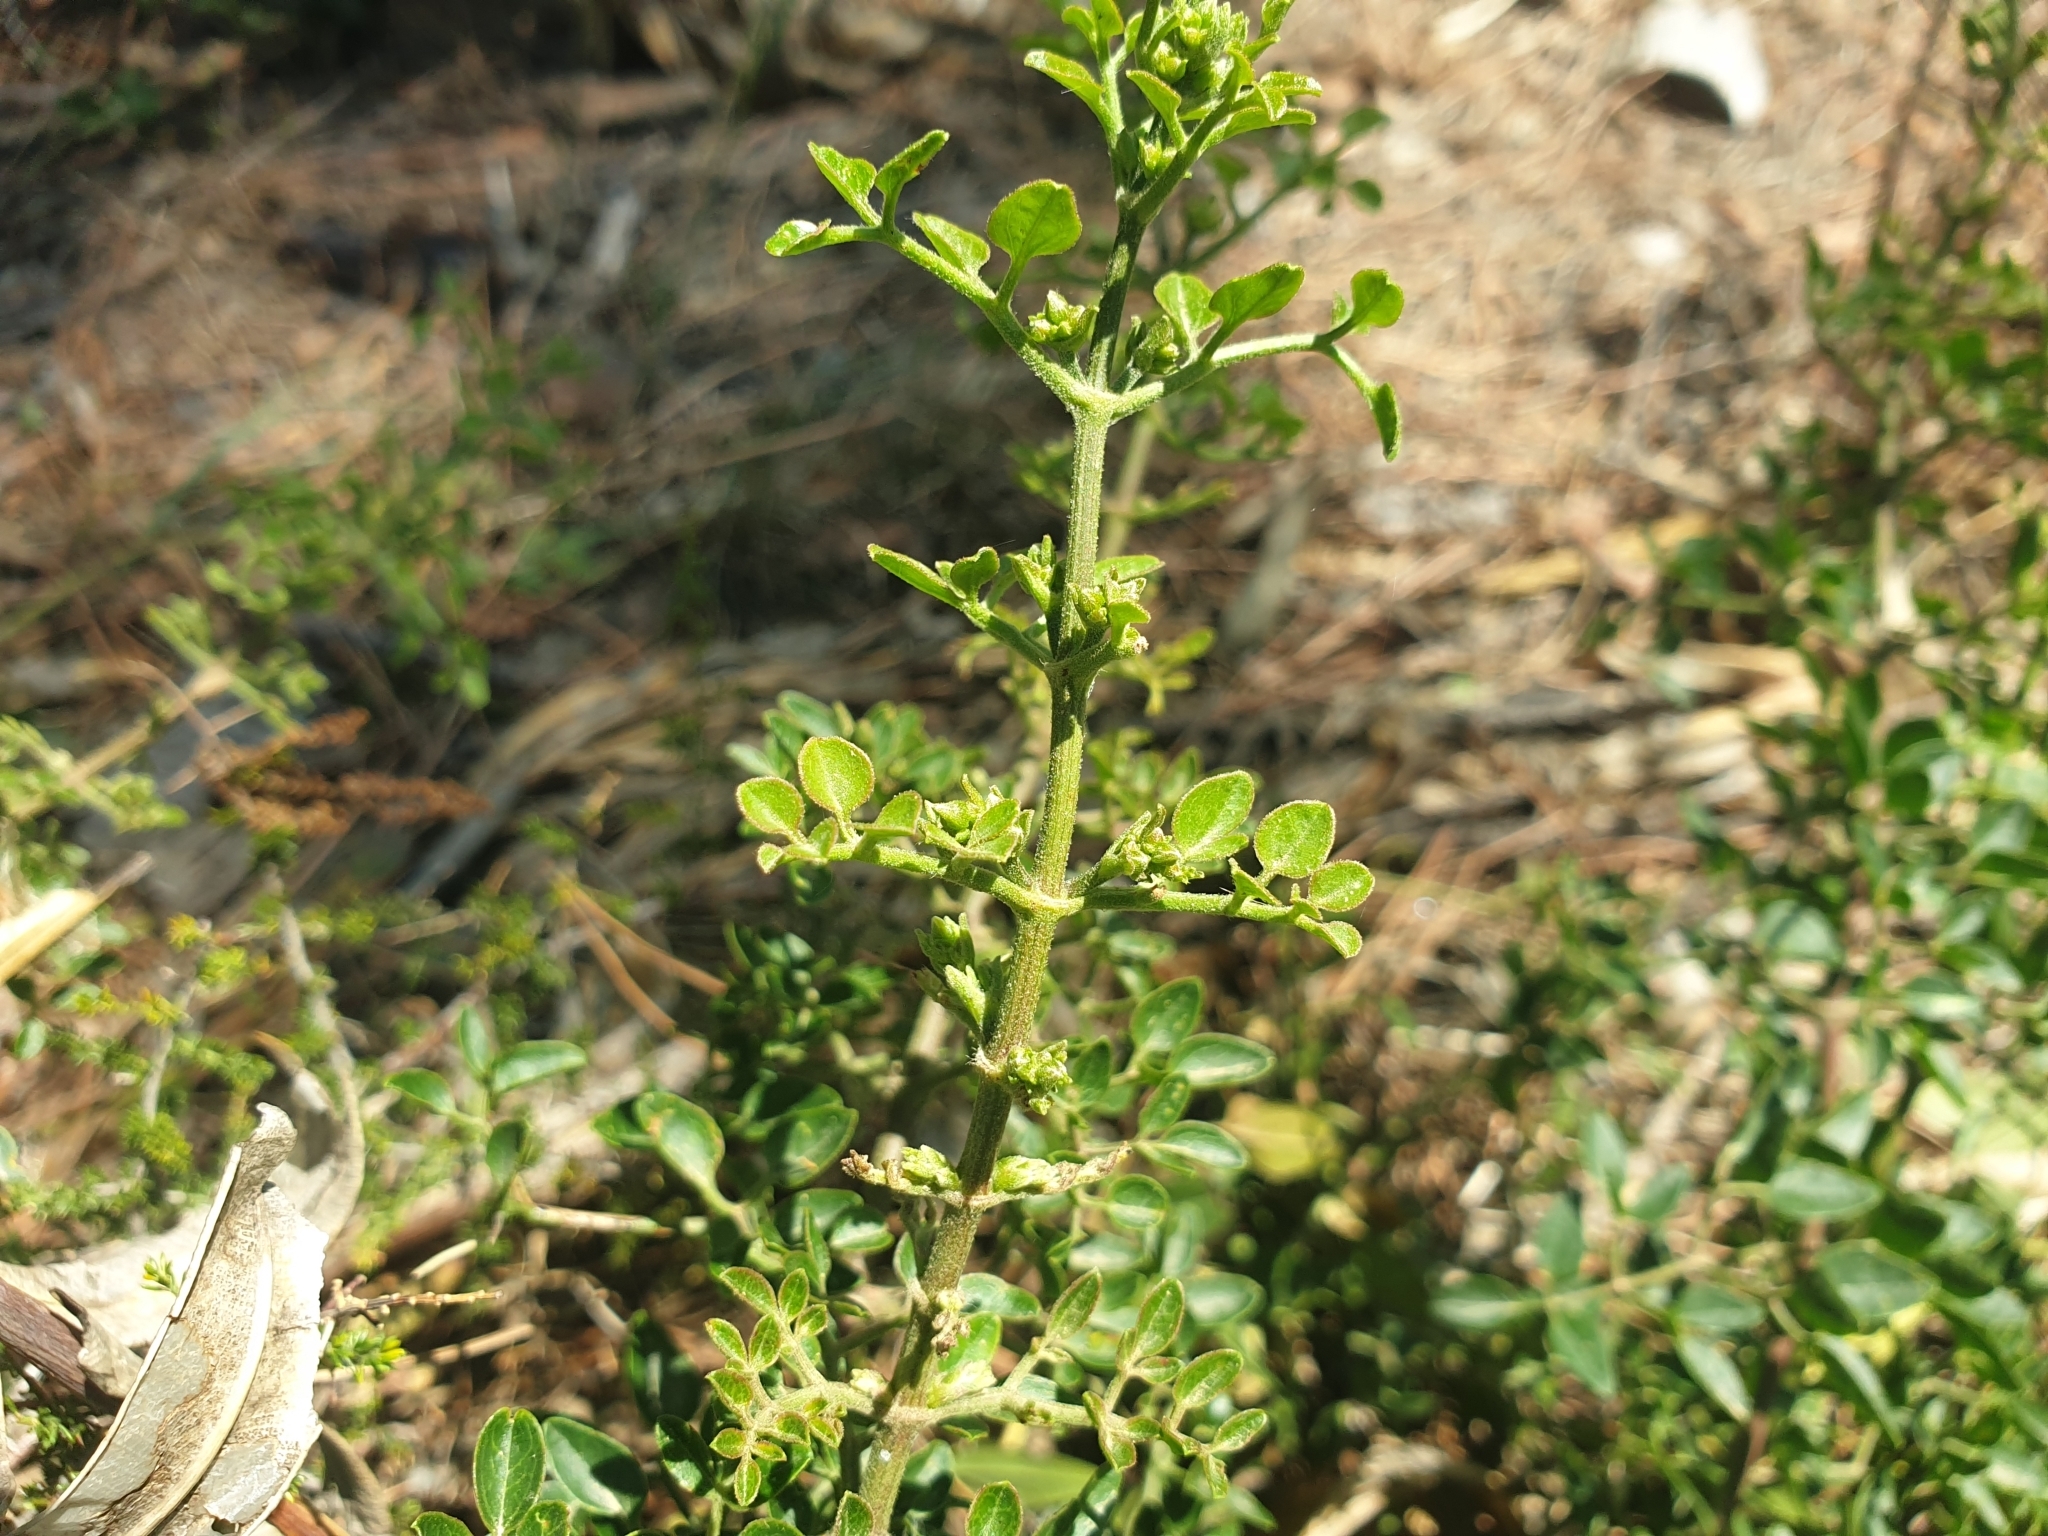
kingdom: Plantae
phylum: Tracheophyta
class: Magnoliopsida
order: Ranunculales
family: Ranunculaceae
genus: Clematis
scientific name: Clematis flammula
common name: Virgin's-bower
